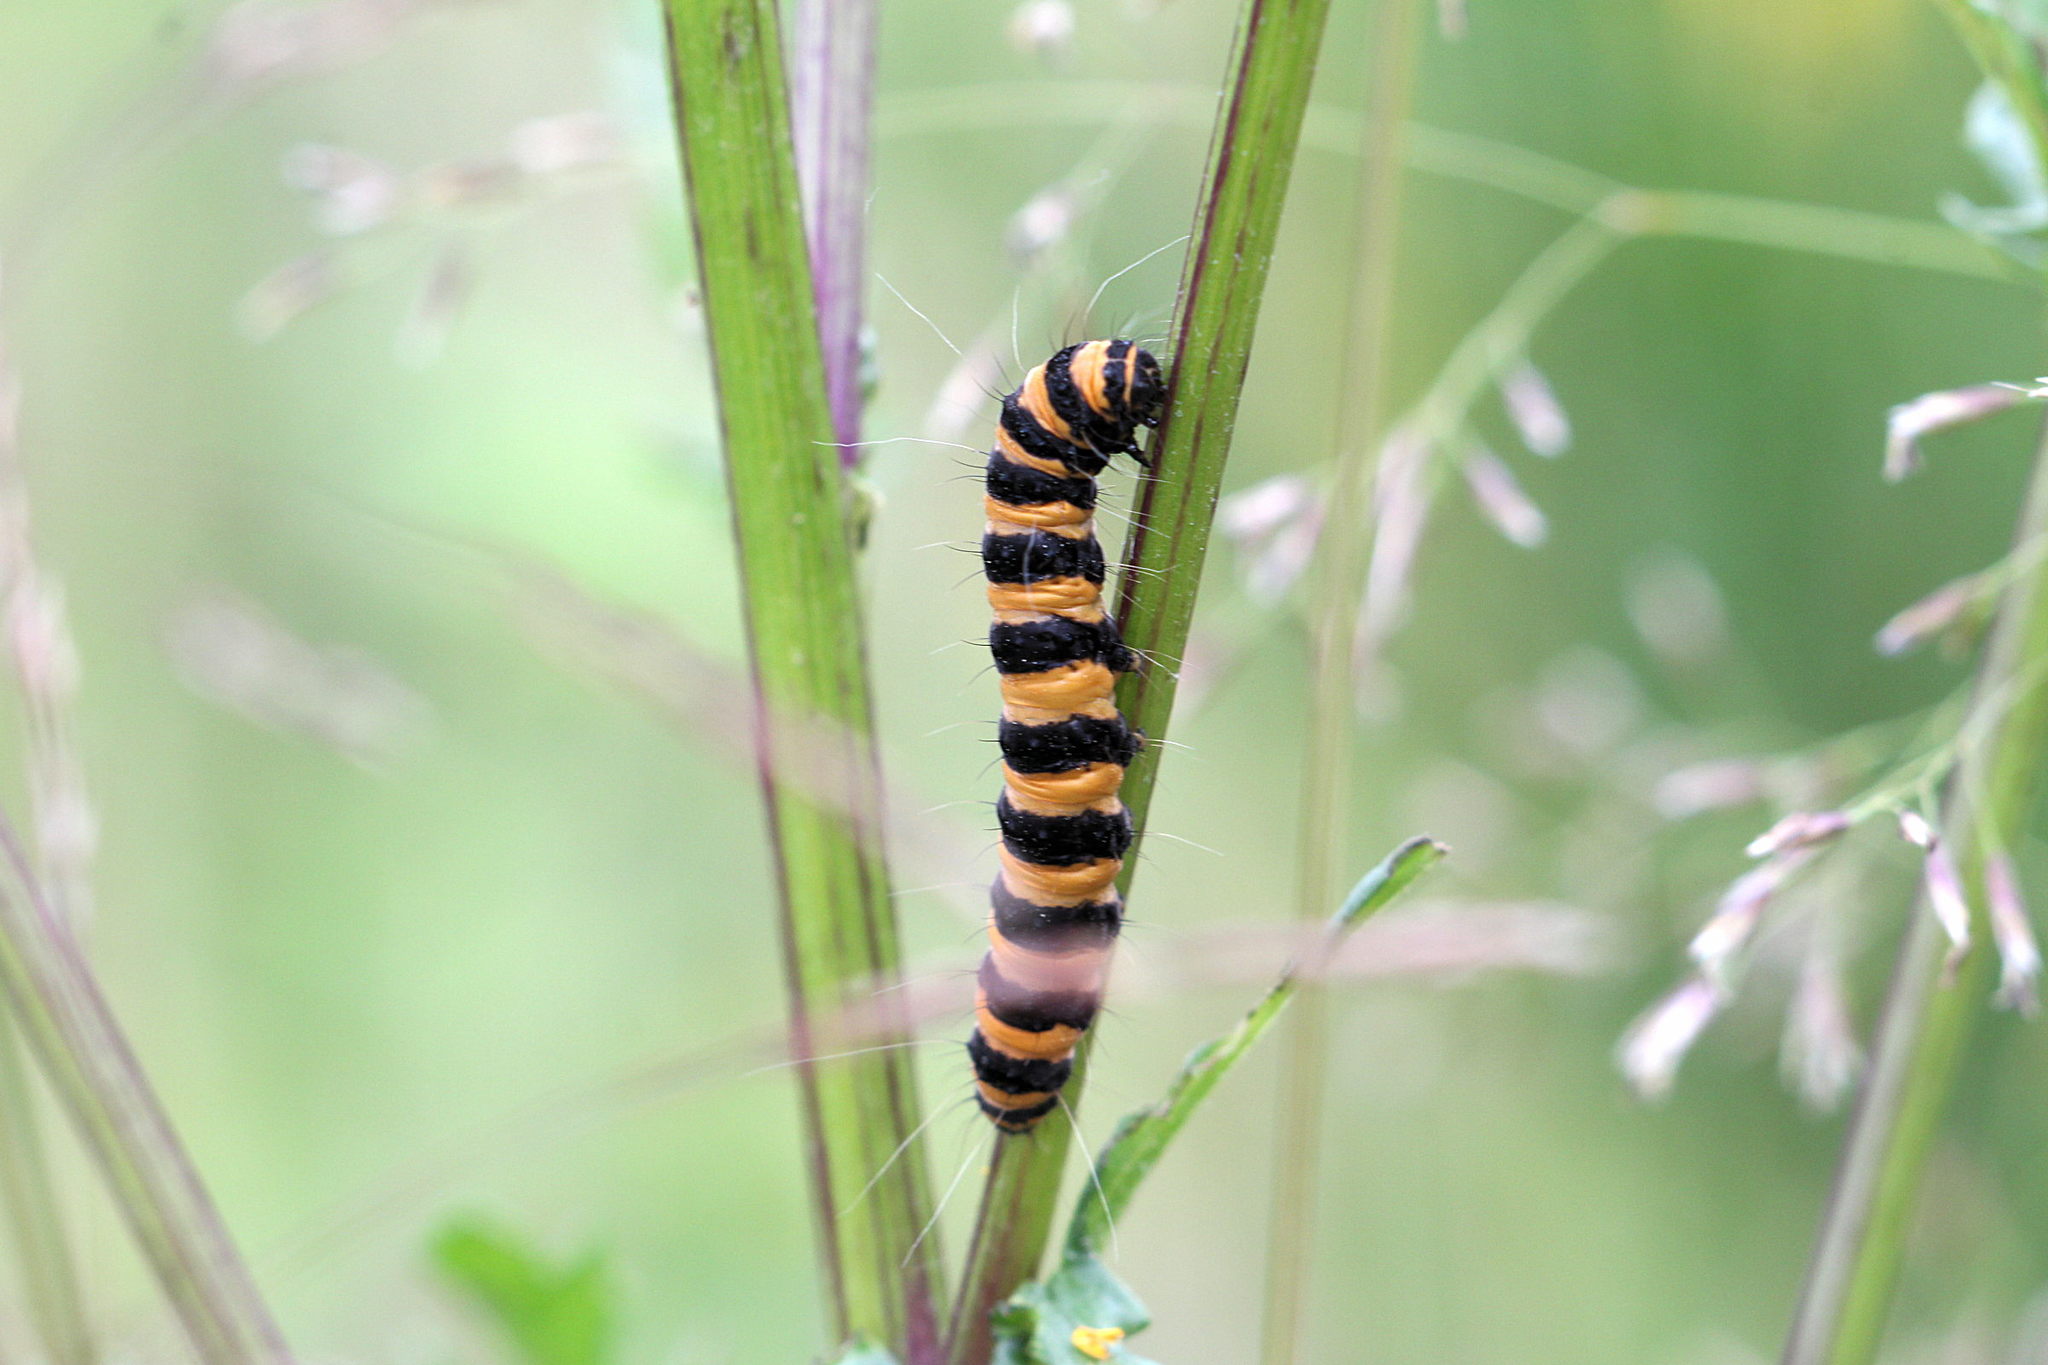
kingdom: Animalia
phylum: Arthropoda
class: Insecta
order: Lepidoptera
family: Erebidae
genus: Tyria
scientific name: Tyria jacobaeae
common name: Cinnabar
